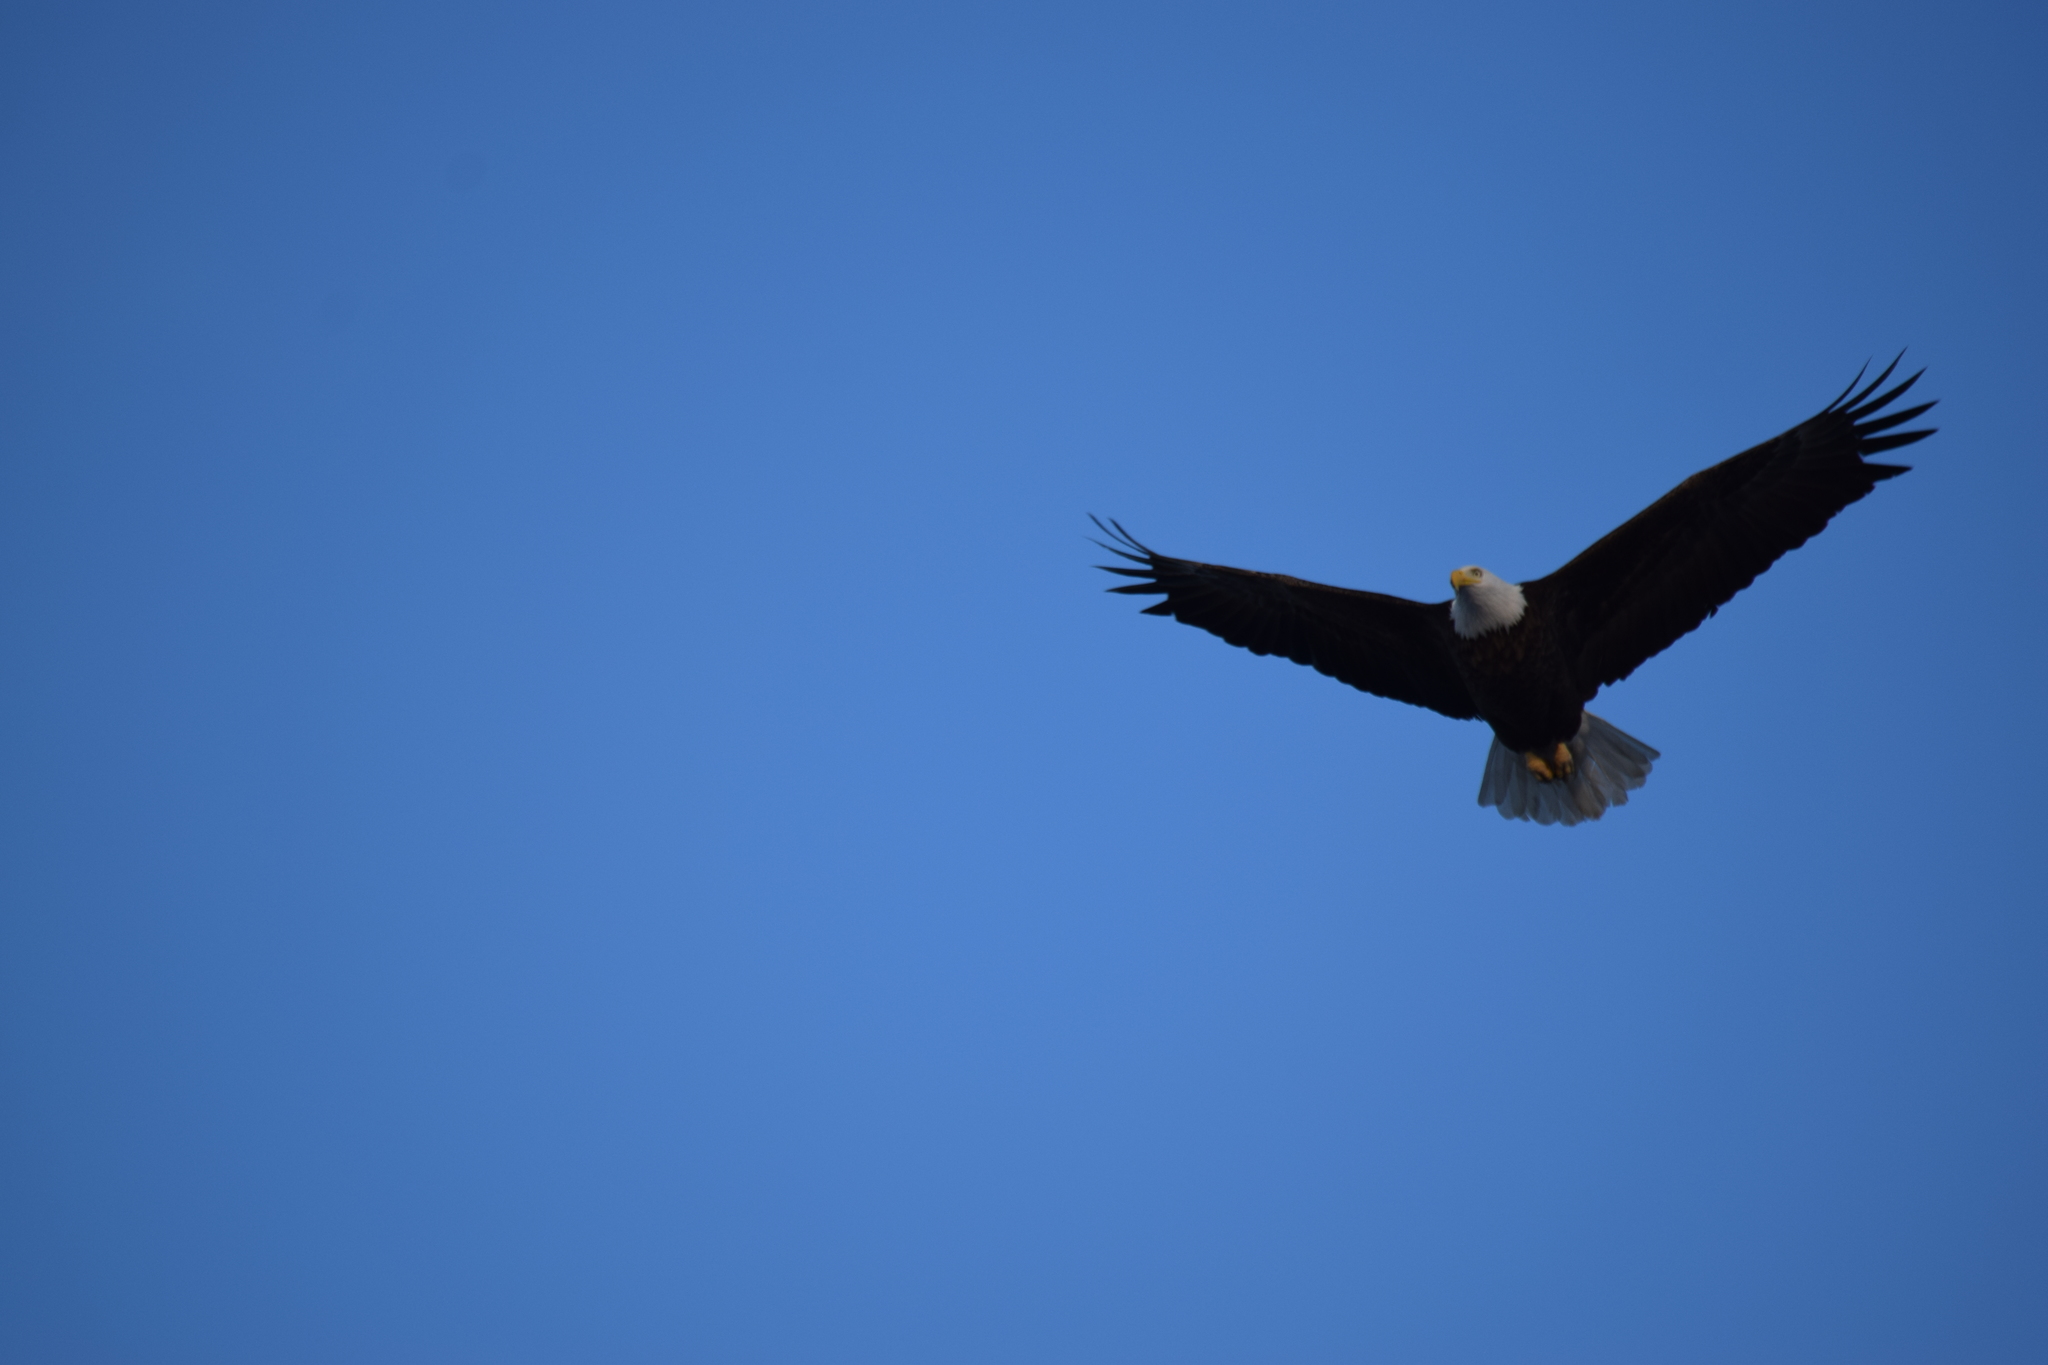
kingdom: Animalia
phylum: Chordata
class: Aves
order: Accipitriformes
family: Accipitridae
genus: Haliaeetus
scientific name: Haliaeetus leucocephalus
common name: Bald eagle
